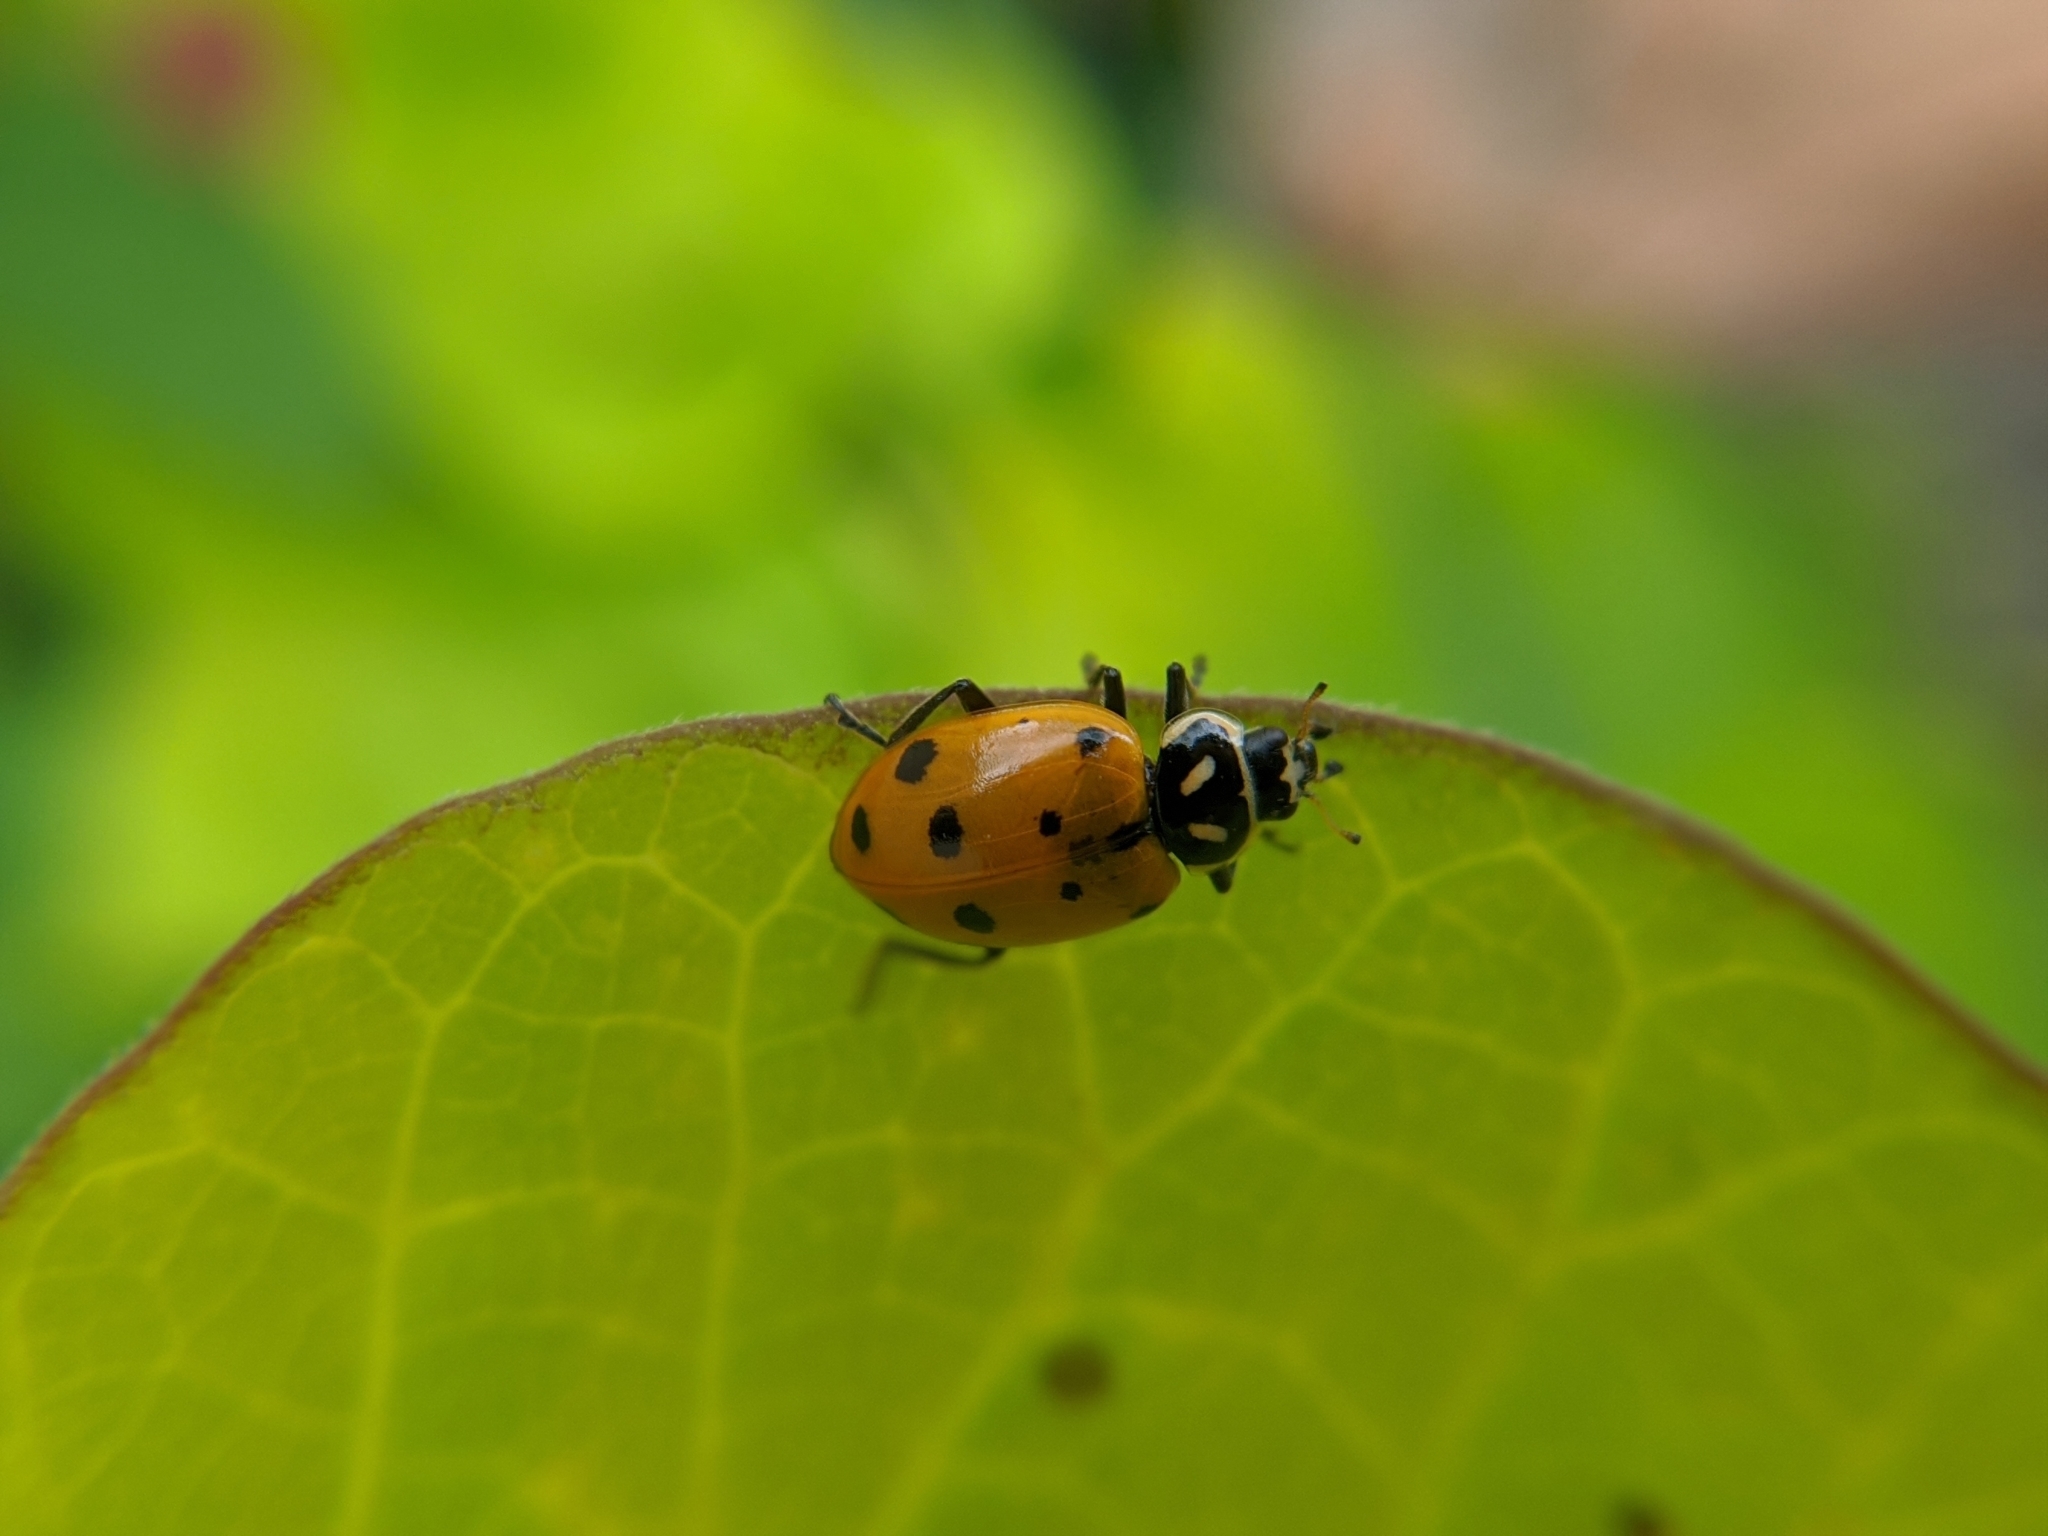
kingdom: Animalia
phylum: Arthropoda
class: Insecta
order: Coleoptera
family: Coccinellidae
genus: Hippodamia
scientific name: Hippodamia convergens
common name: Convergent lady beetle
